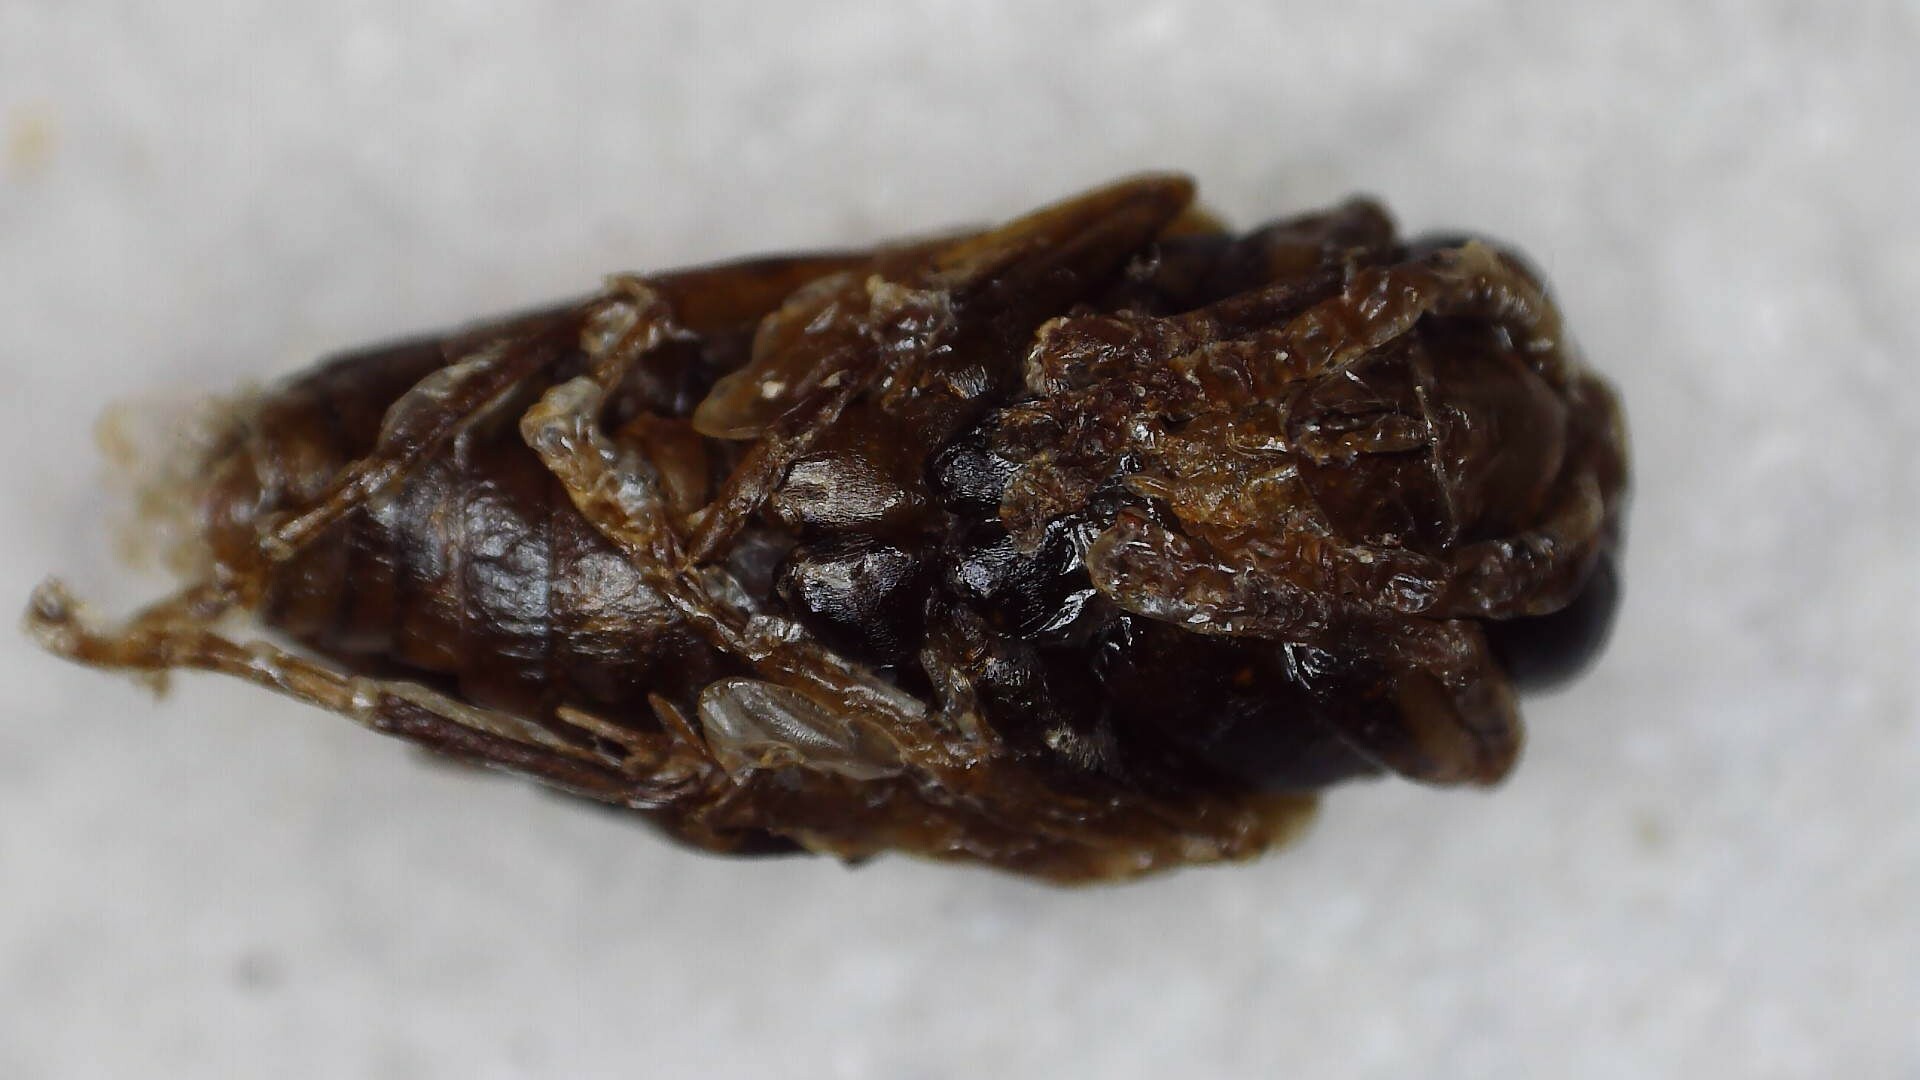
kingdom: Animalia
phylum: Arthropoda
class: Insecta
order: Hymenoptera
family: Vespidae
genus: Dolichovespula
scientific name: Dolichovespula maculata
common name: Bald-faced hornet
